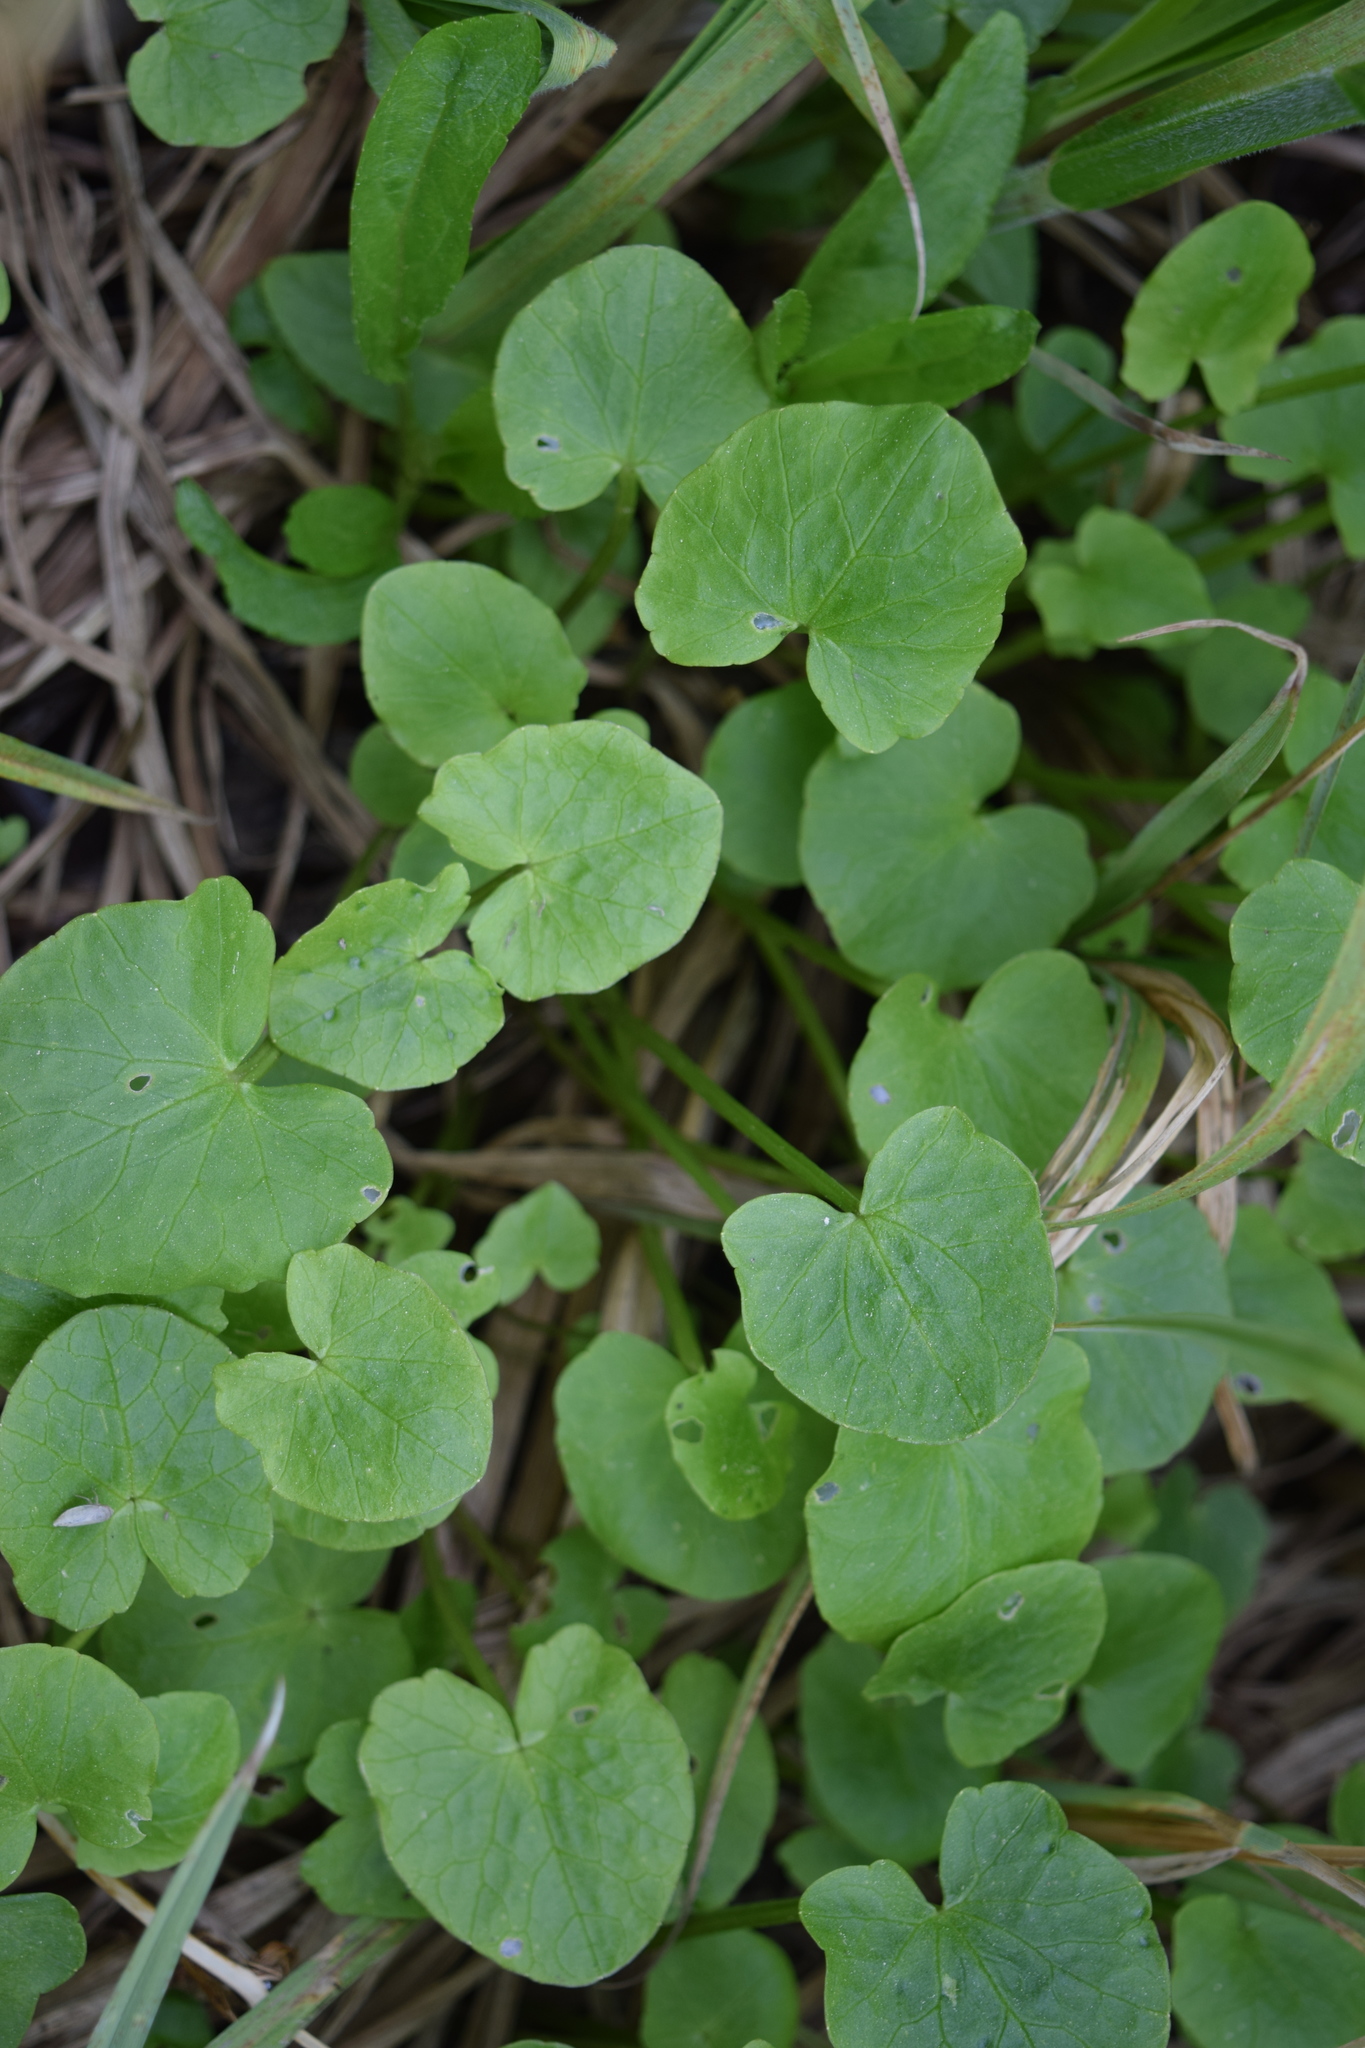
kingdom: Plantae
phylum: Tracheophyta
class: Magnoliopsida
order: Ranunculales
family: Ranunculaceae
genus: Ficaria
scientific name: Ficaria verna
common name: Lesser celandine
